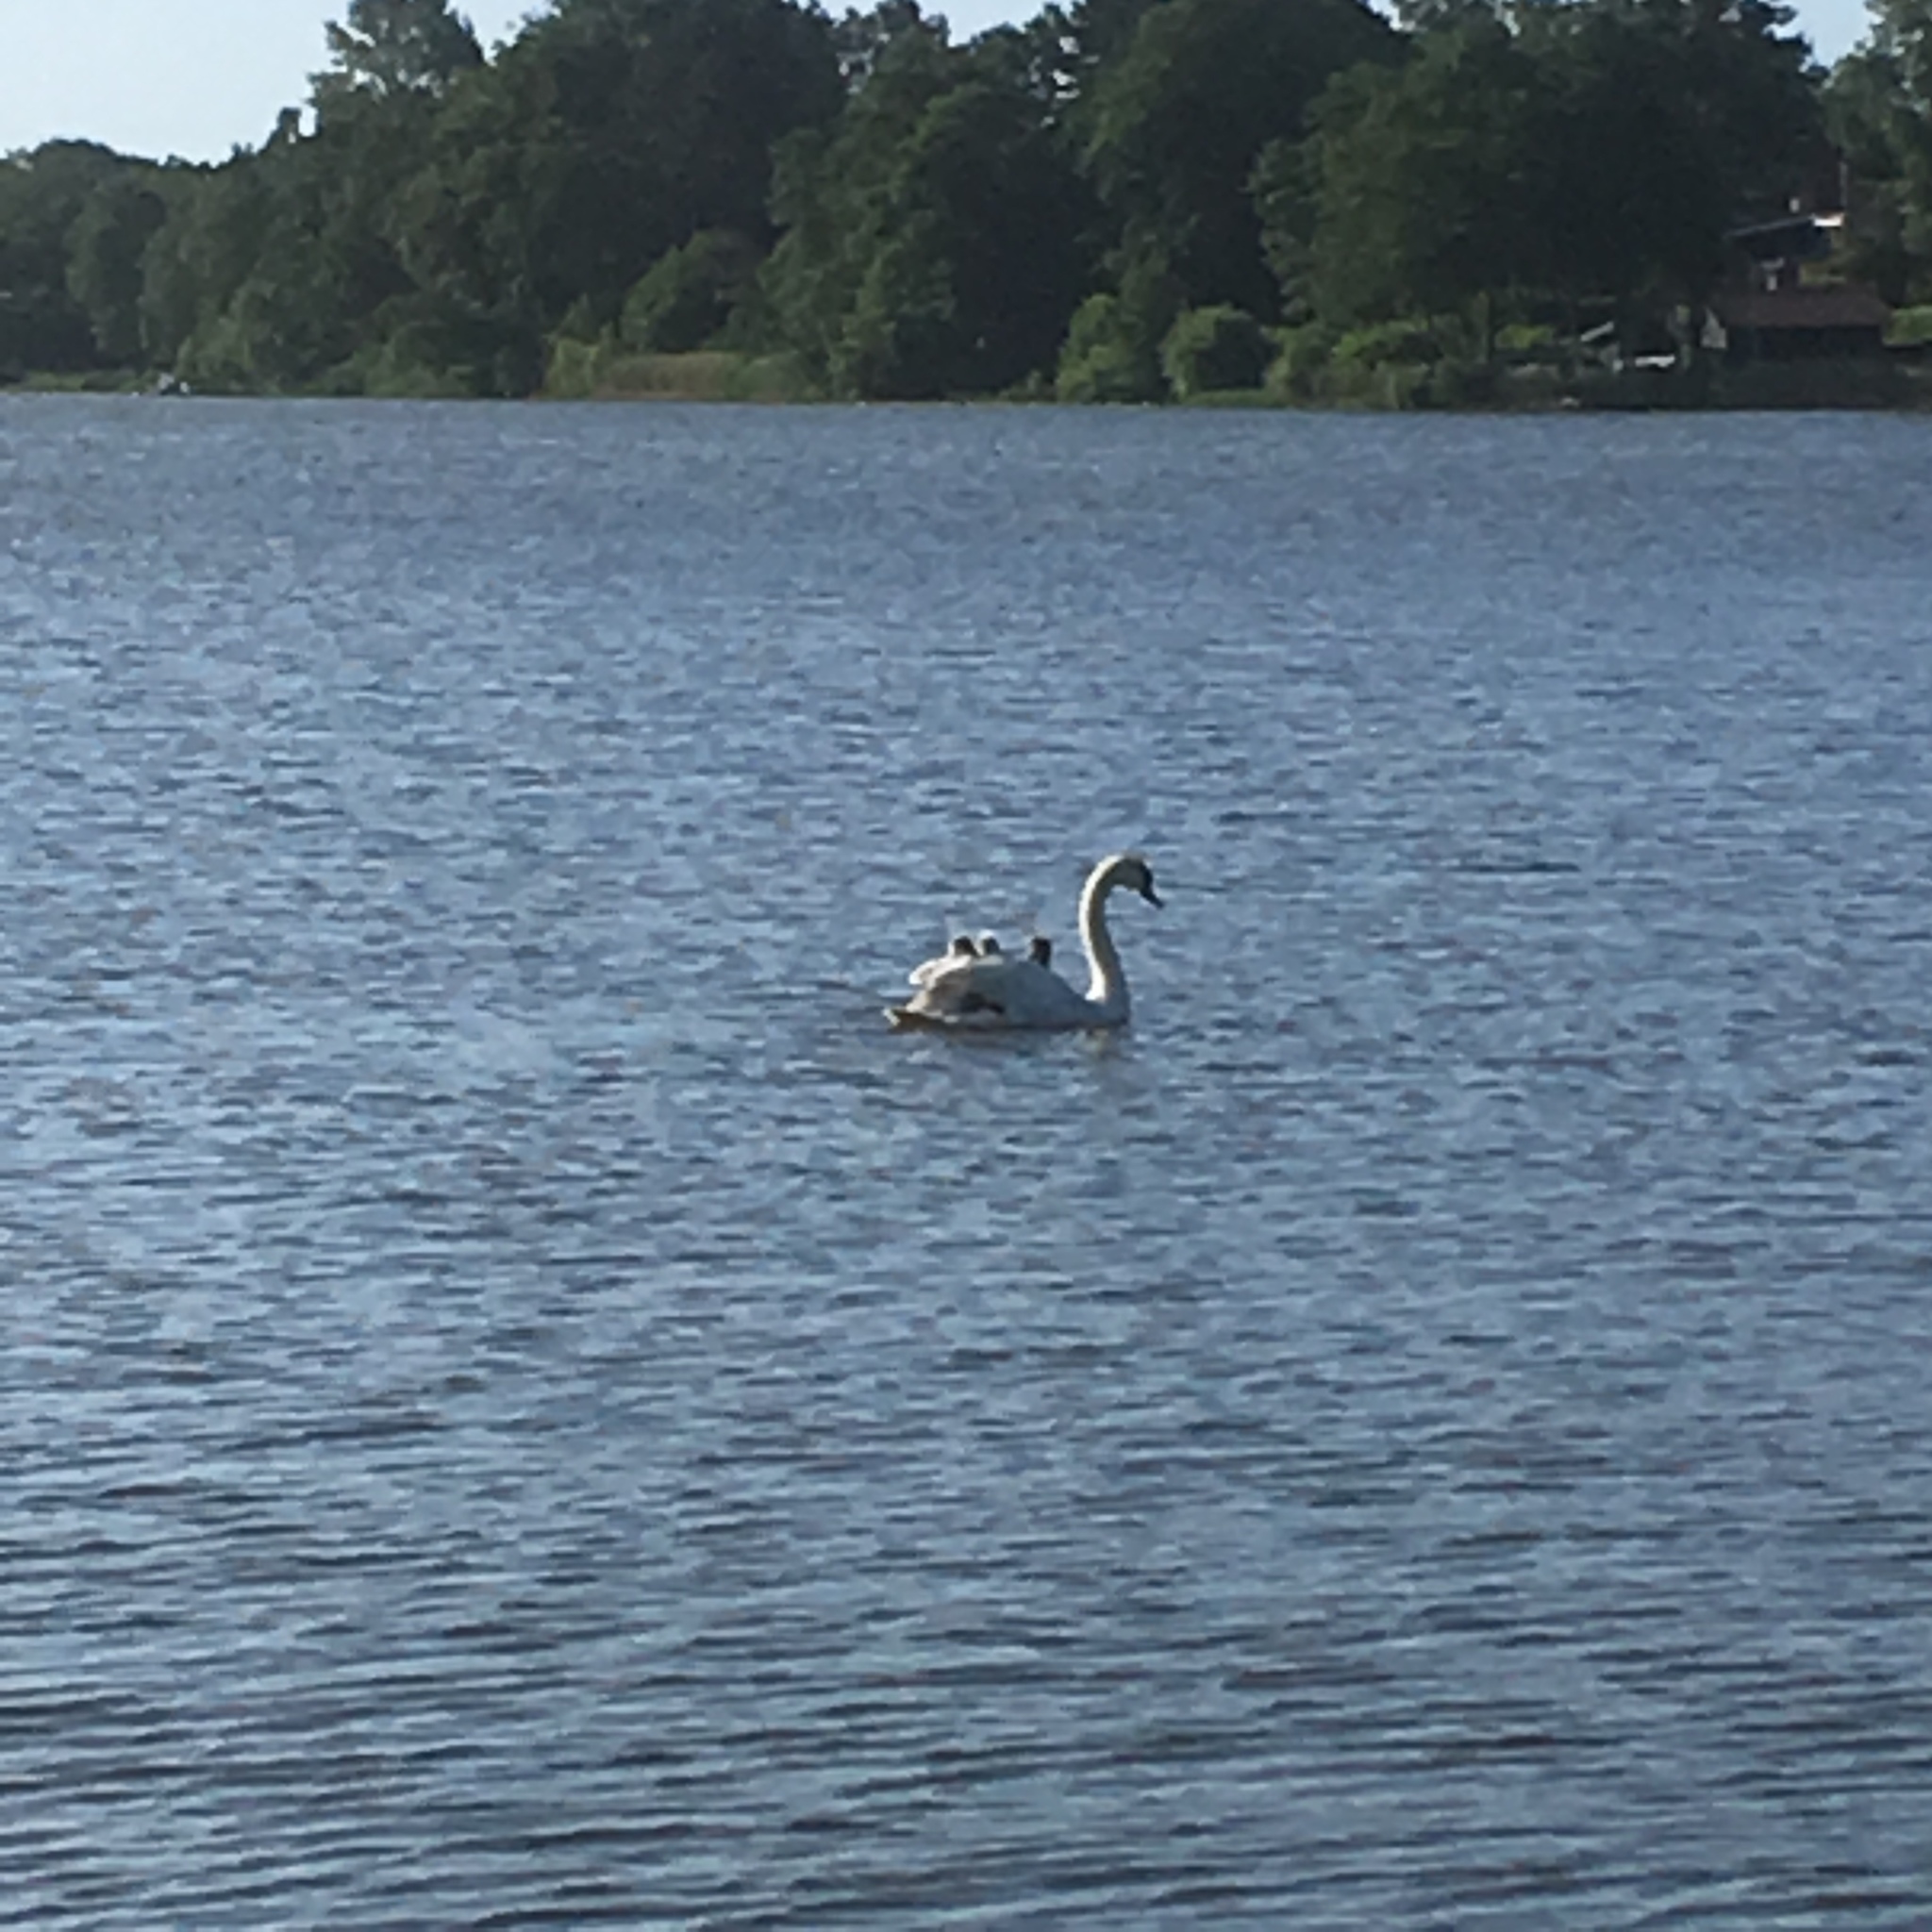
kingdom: Animalia
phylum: Chordata
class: Aves
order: Anseriformes
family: Anatidae
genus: Cygnus
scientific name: Cygnus olor
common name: Mute swan
